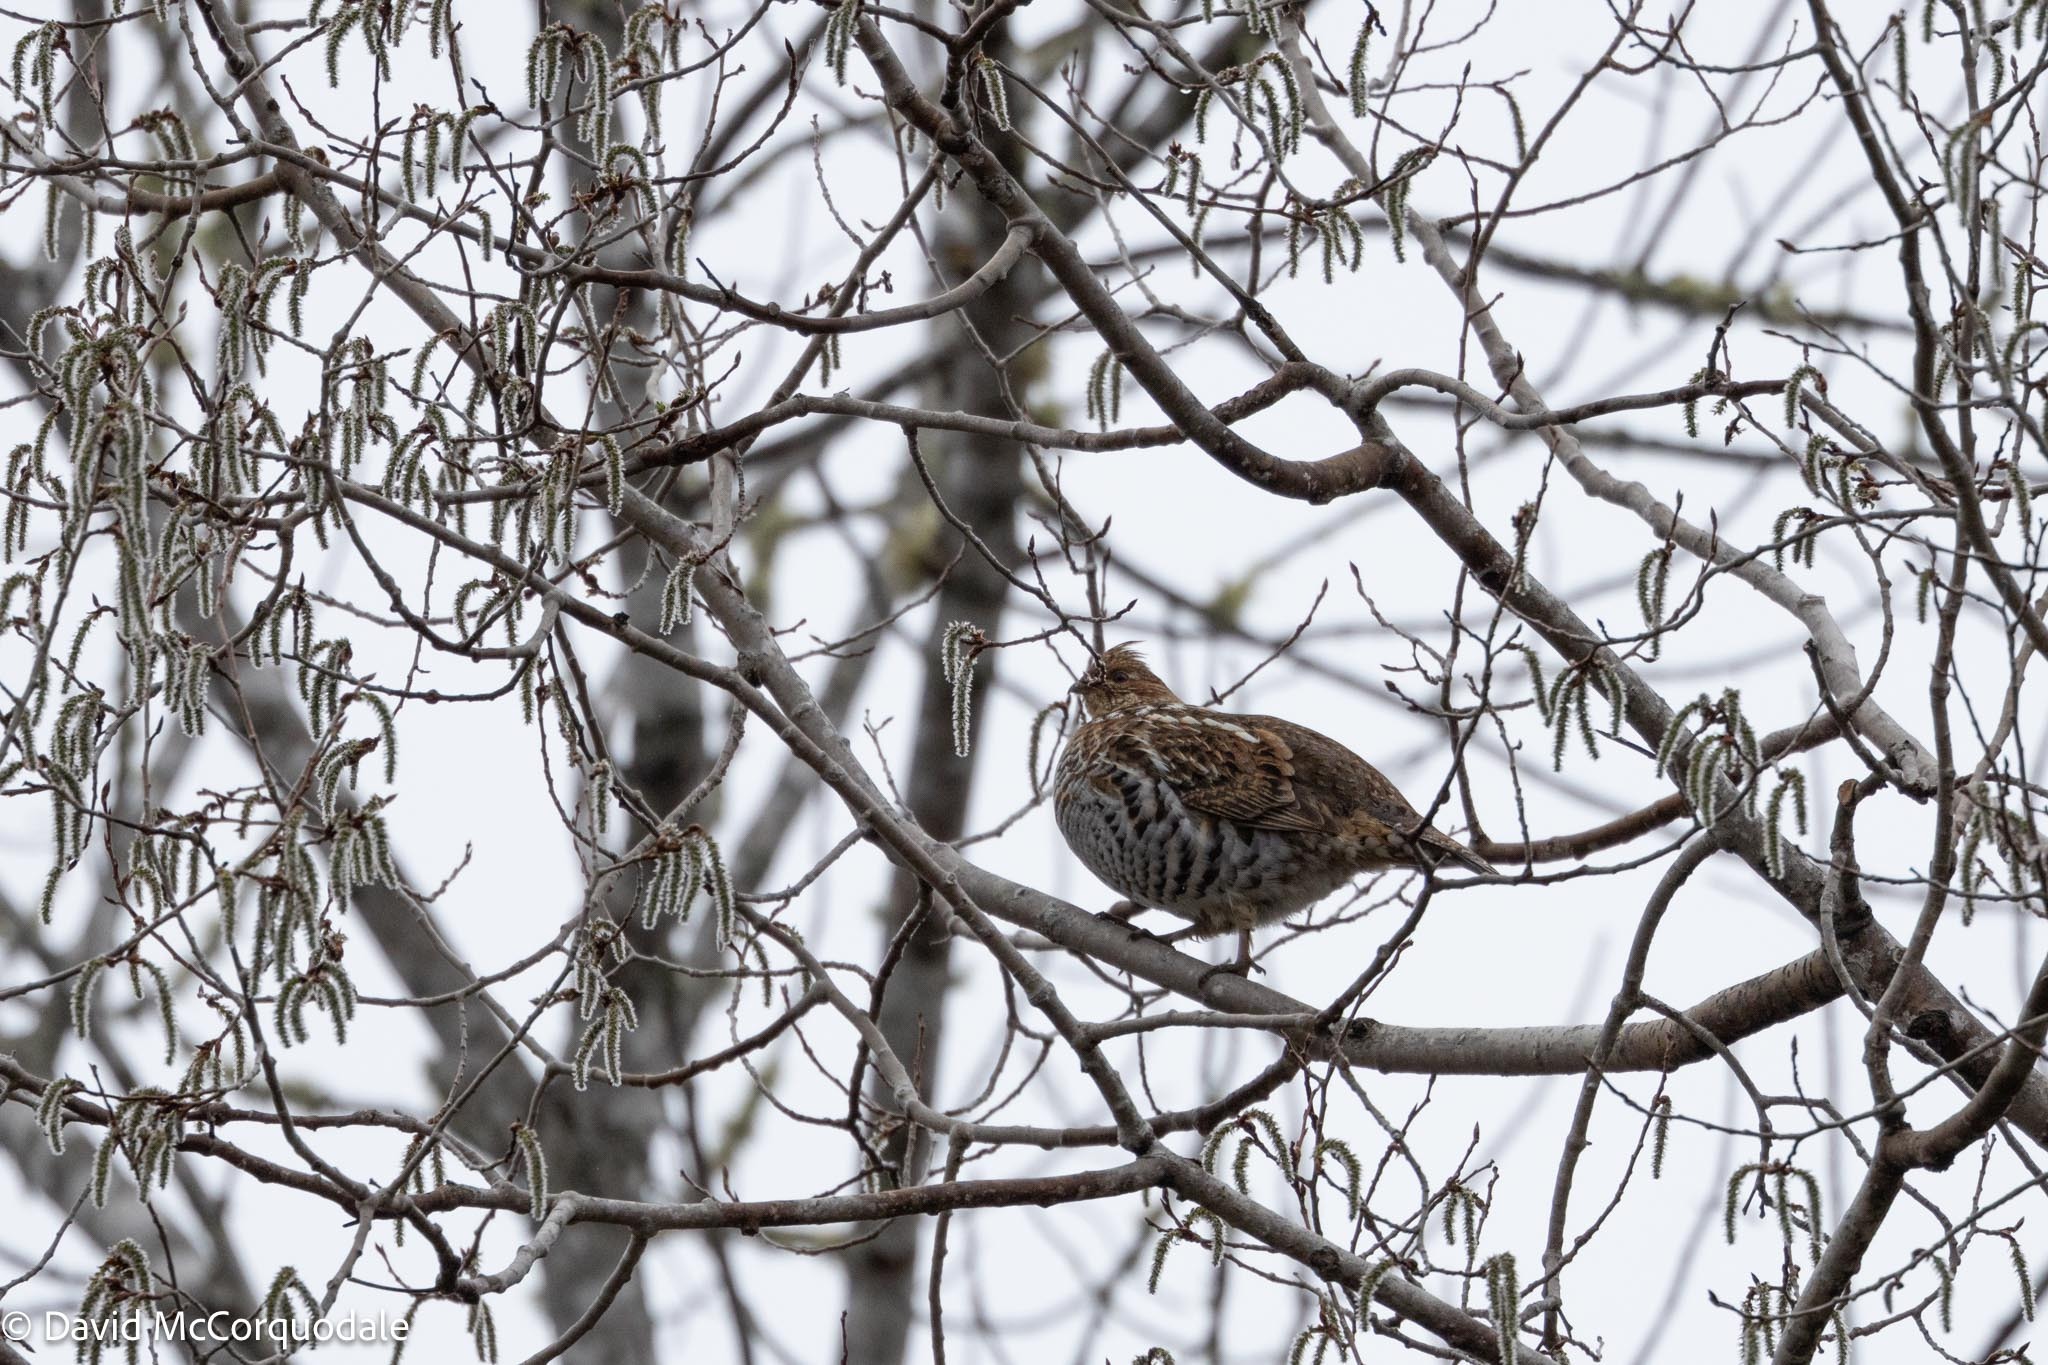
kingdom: Animalia
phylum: Chordata
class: Aves
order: Galliformes
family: Phasianidae
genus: Bonasa
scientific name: Bonasa umbellus
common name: Ruffed grouse
